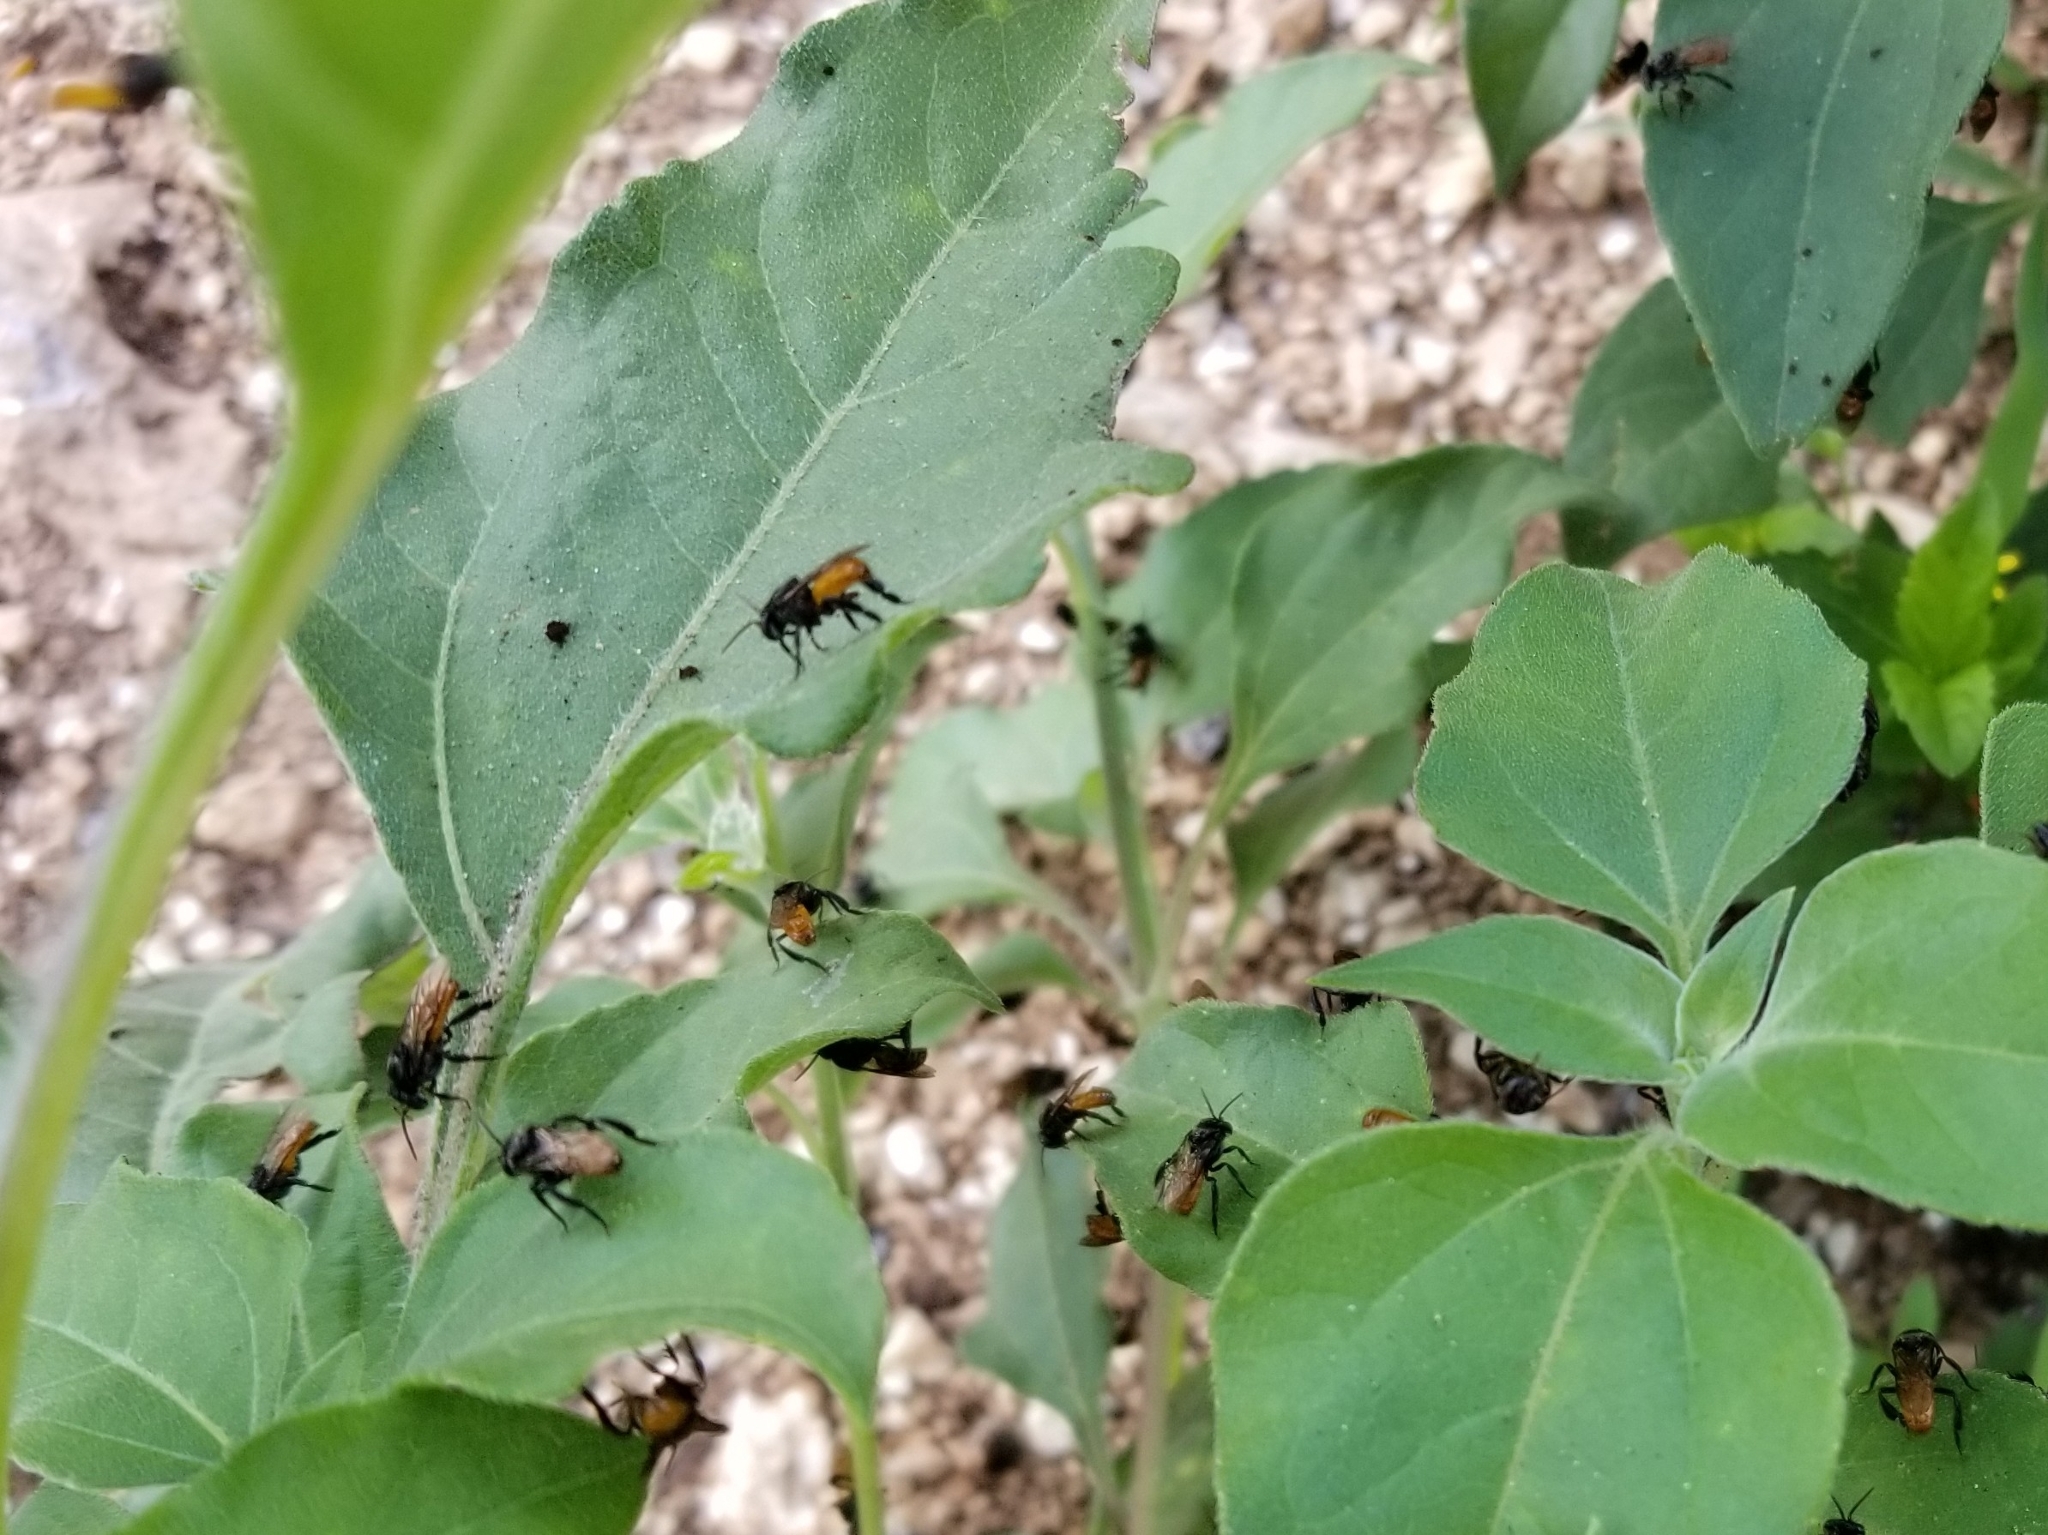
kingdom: Animalia
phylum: Arthropoda
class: Insecta
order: Hymenoptera
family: Apidae
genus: Trigona
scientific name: Trigona fulviventris
